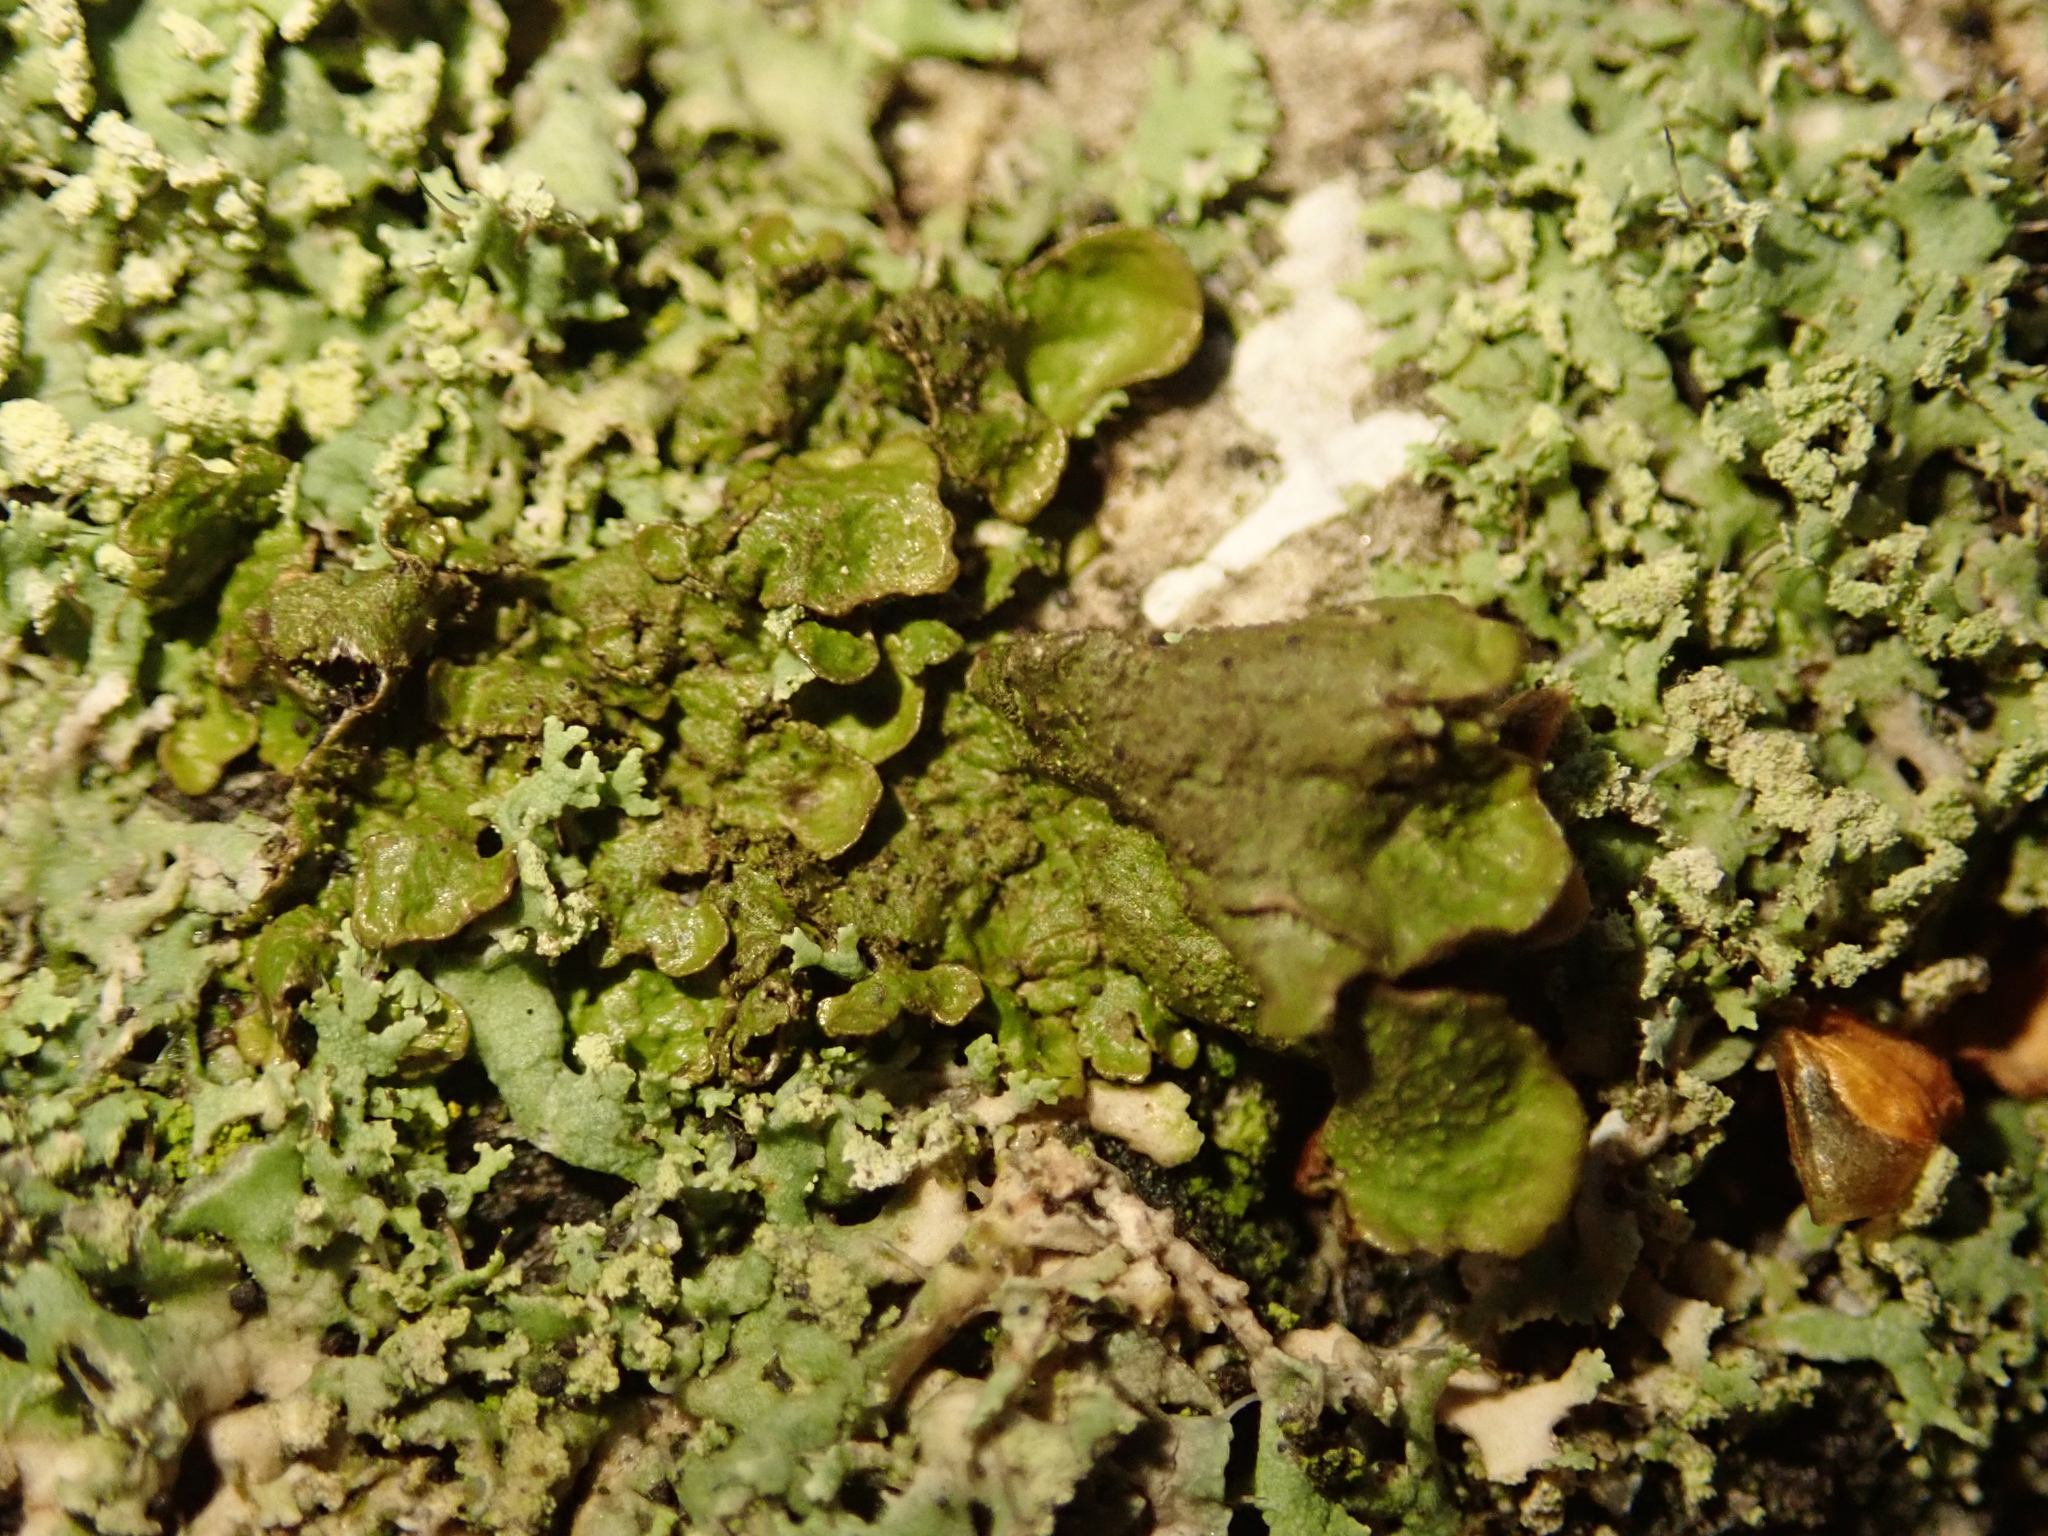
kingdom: Fungi
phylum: Ascomycota
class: Lecanoromycetes
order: Lecanorales
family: Parmeliaceae
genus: Melanelixia
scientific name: Melanelixia subaurifera
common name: Abraded camouflage lichen
